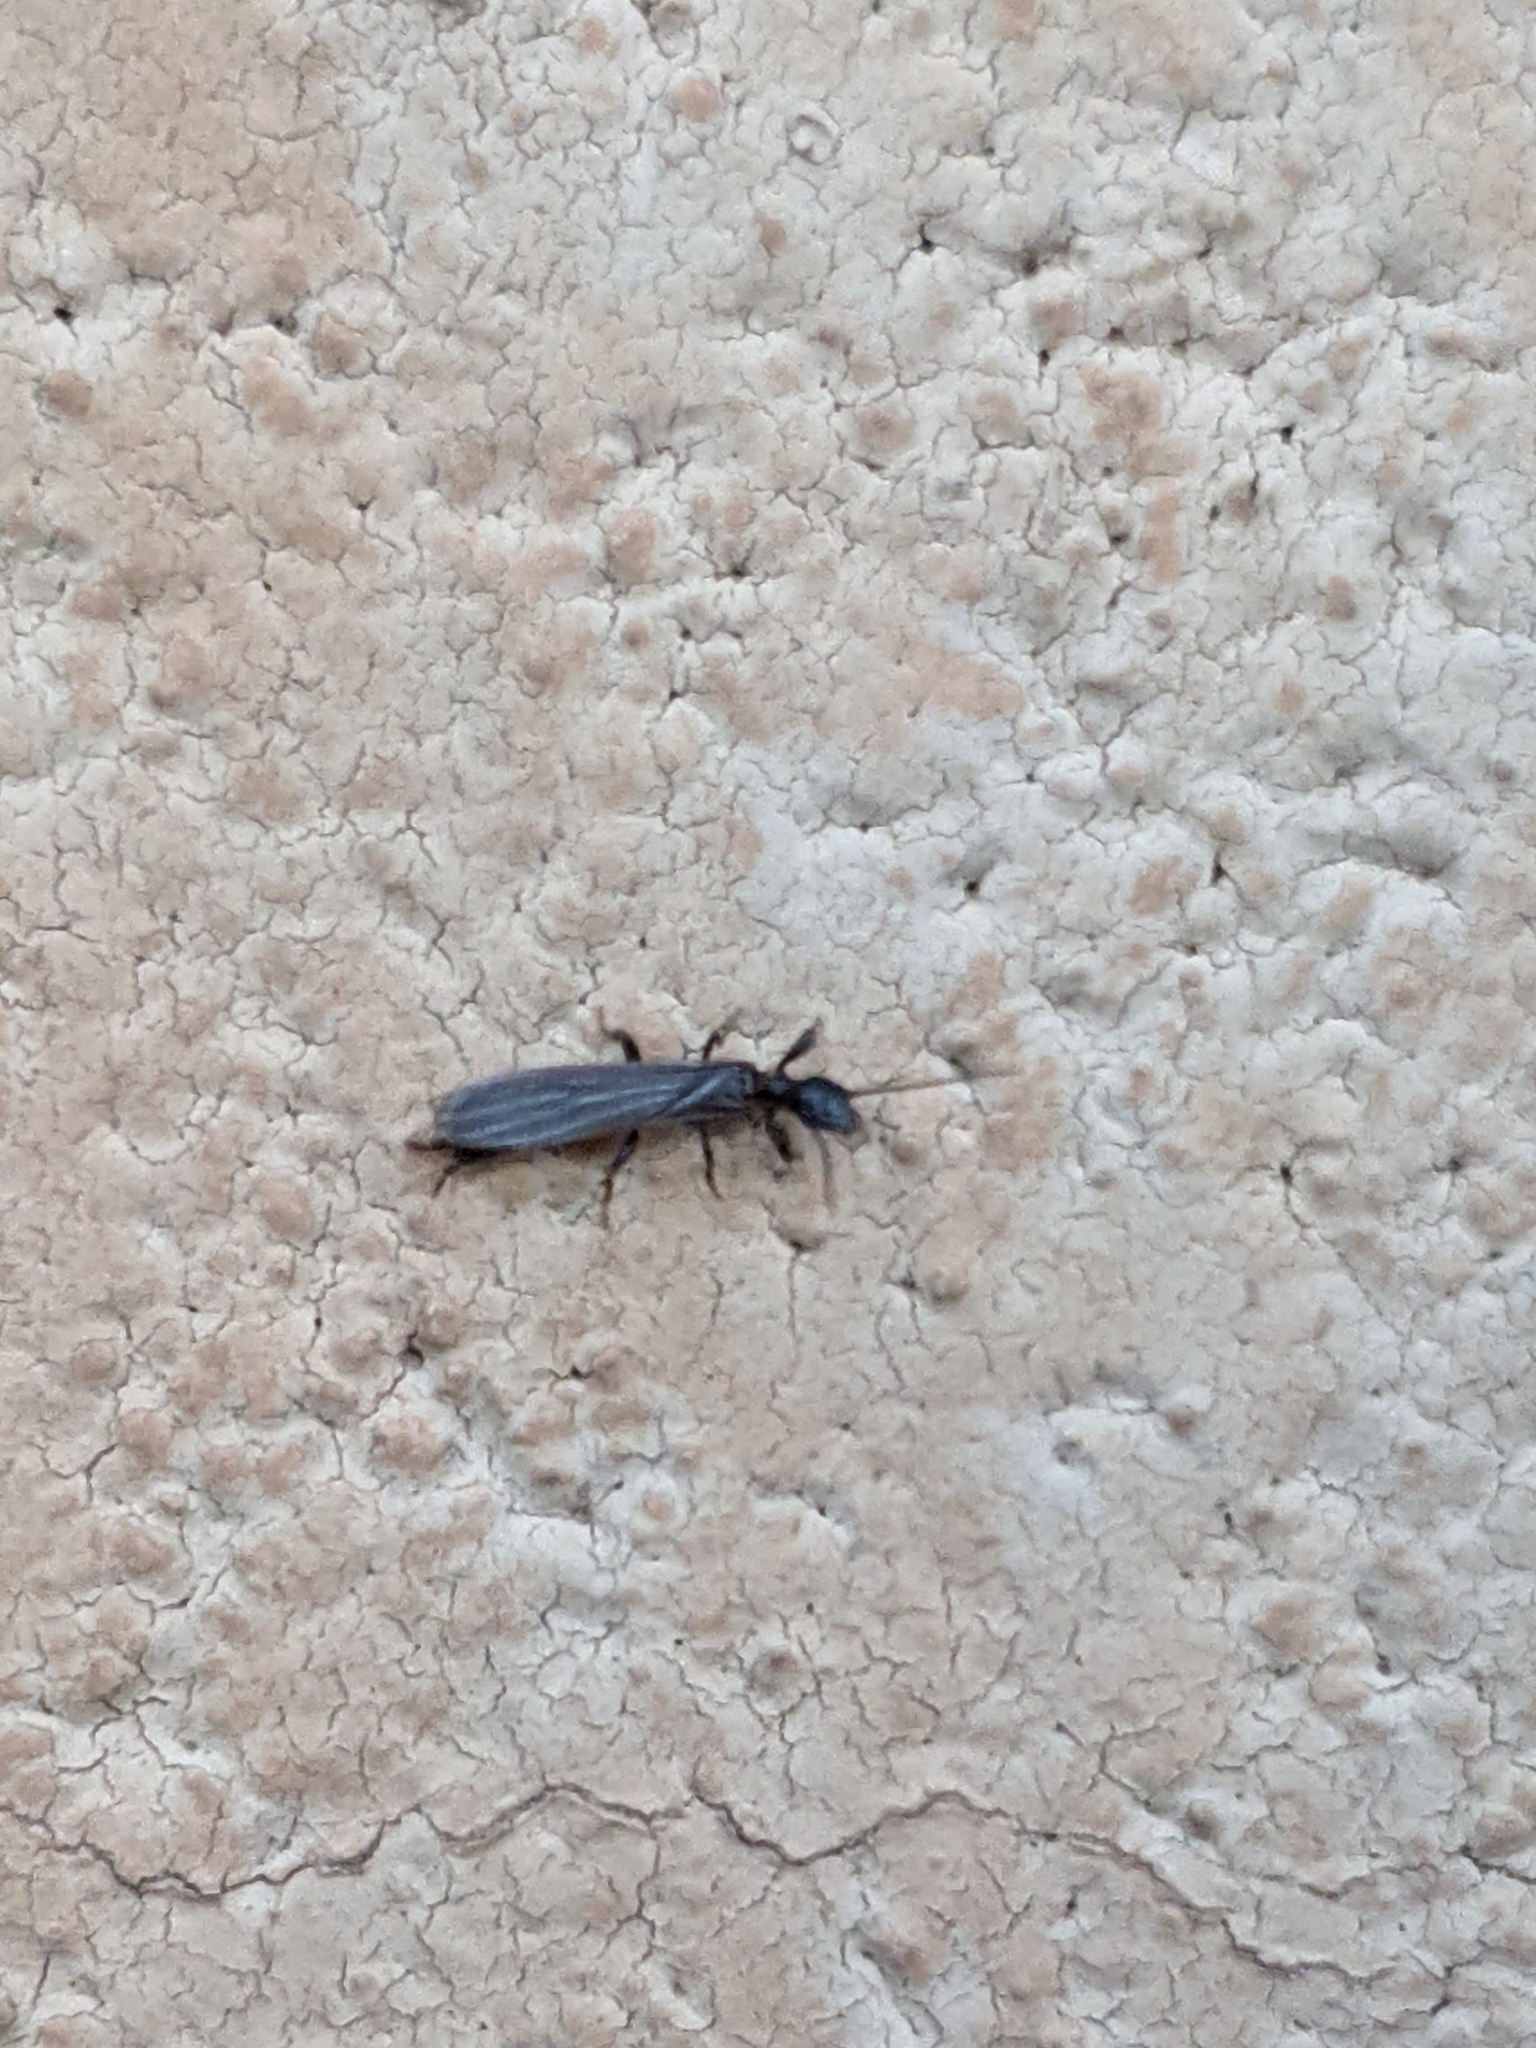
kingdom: Animalia
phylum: Arthropoda
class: Insecta
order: Embioptera
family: Oligotomidae
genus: Oligotoma
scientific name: Oligotoma nigra
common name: Black webspinner
